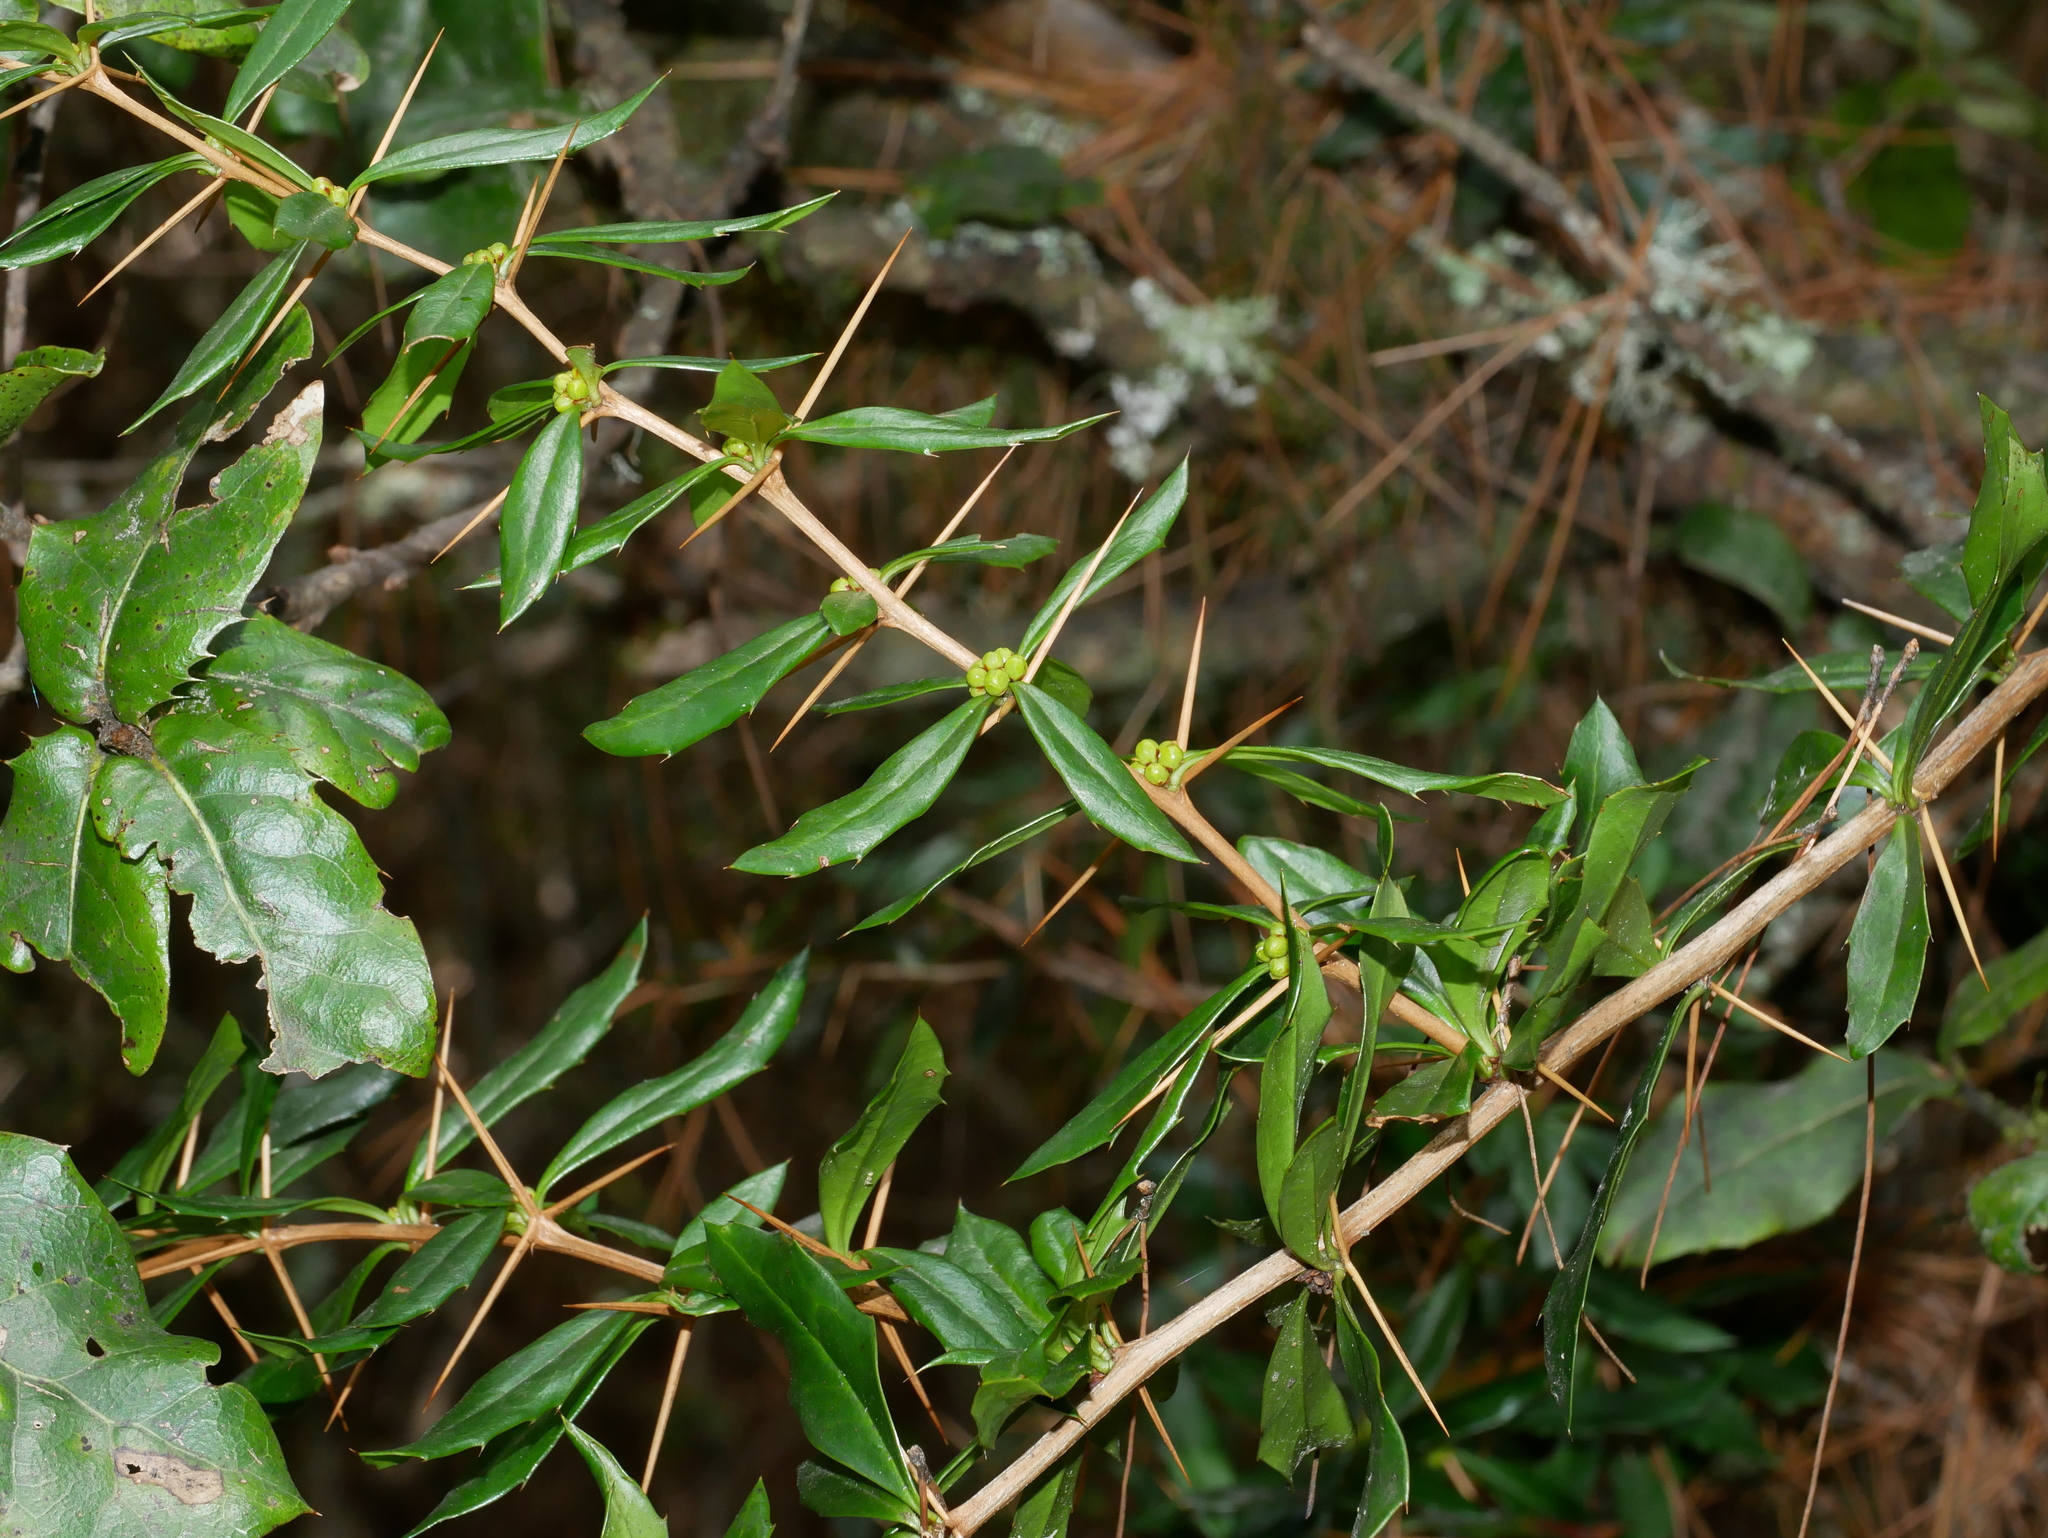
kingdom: Plantae
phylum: Tracheophyta
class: Magnoliopsida
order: Ranunculales
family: Berberidaceae
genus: Berberis
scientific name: Berberis nantoensis
